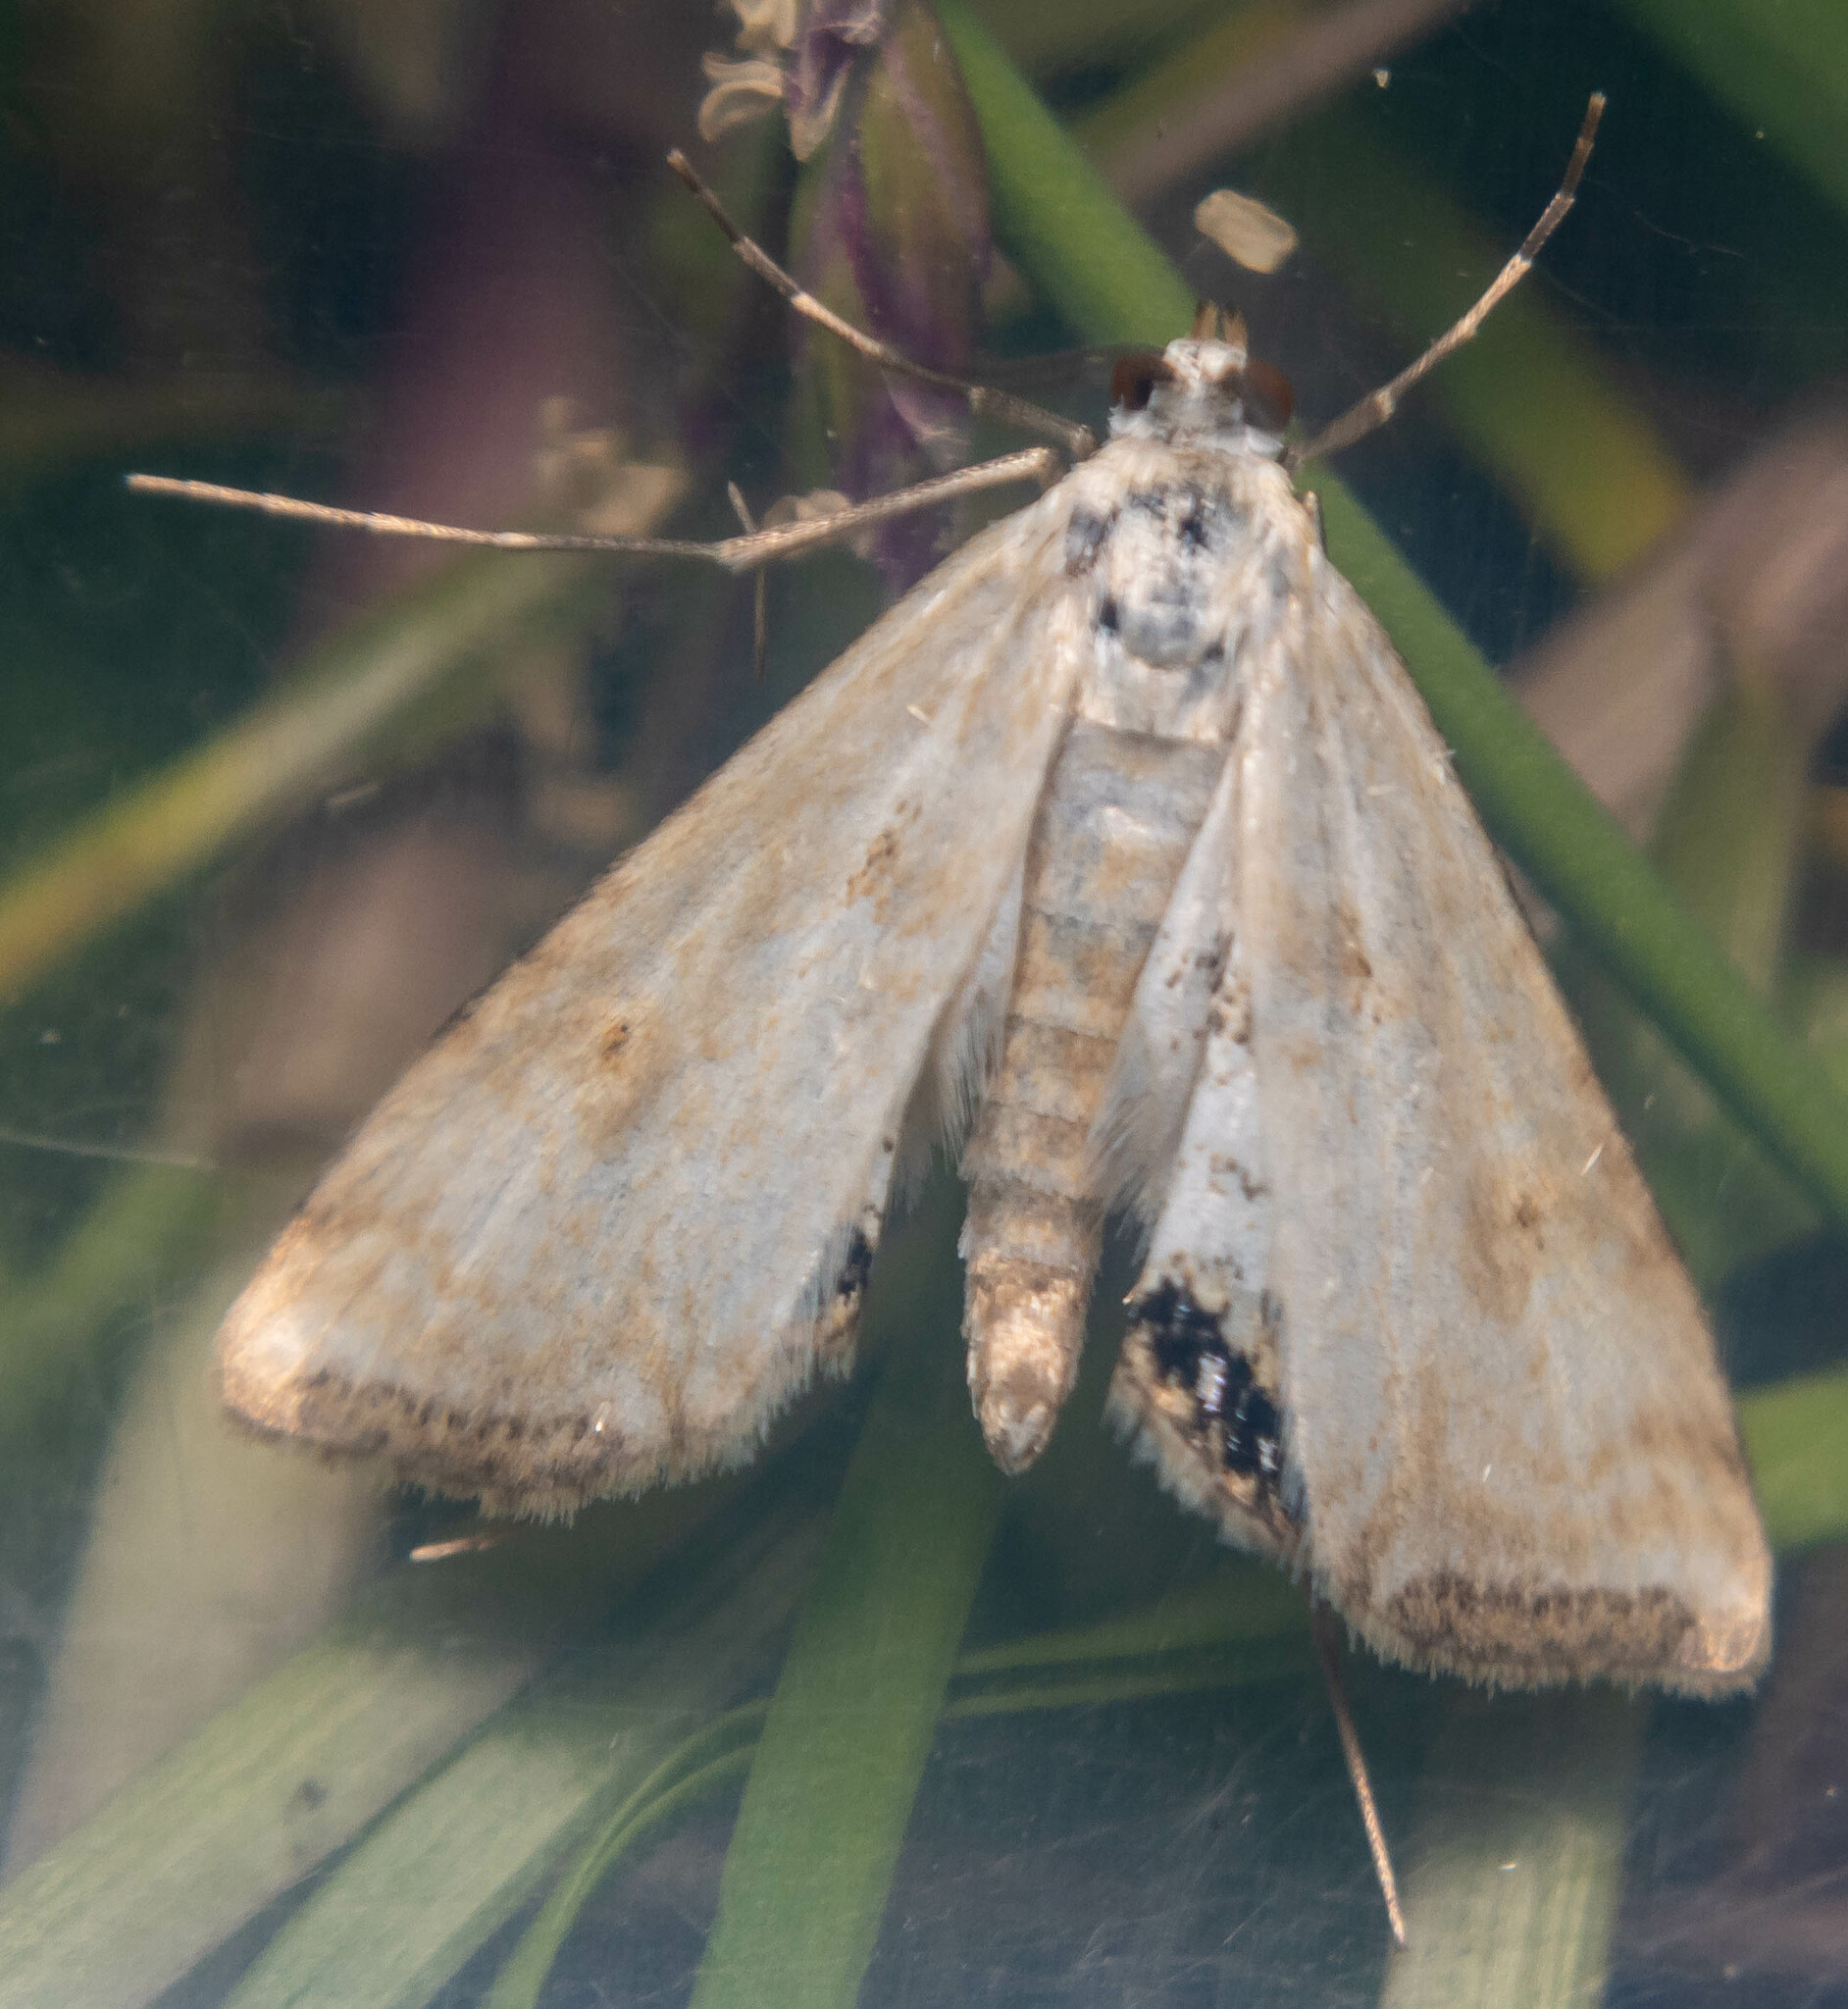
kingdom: Animalia
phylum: Arthropoda
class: Insecta
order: Lepidoptera
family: Crambidae
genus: Cataclysta
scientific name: Cataclysta lemnata
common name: Small china-mark
